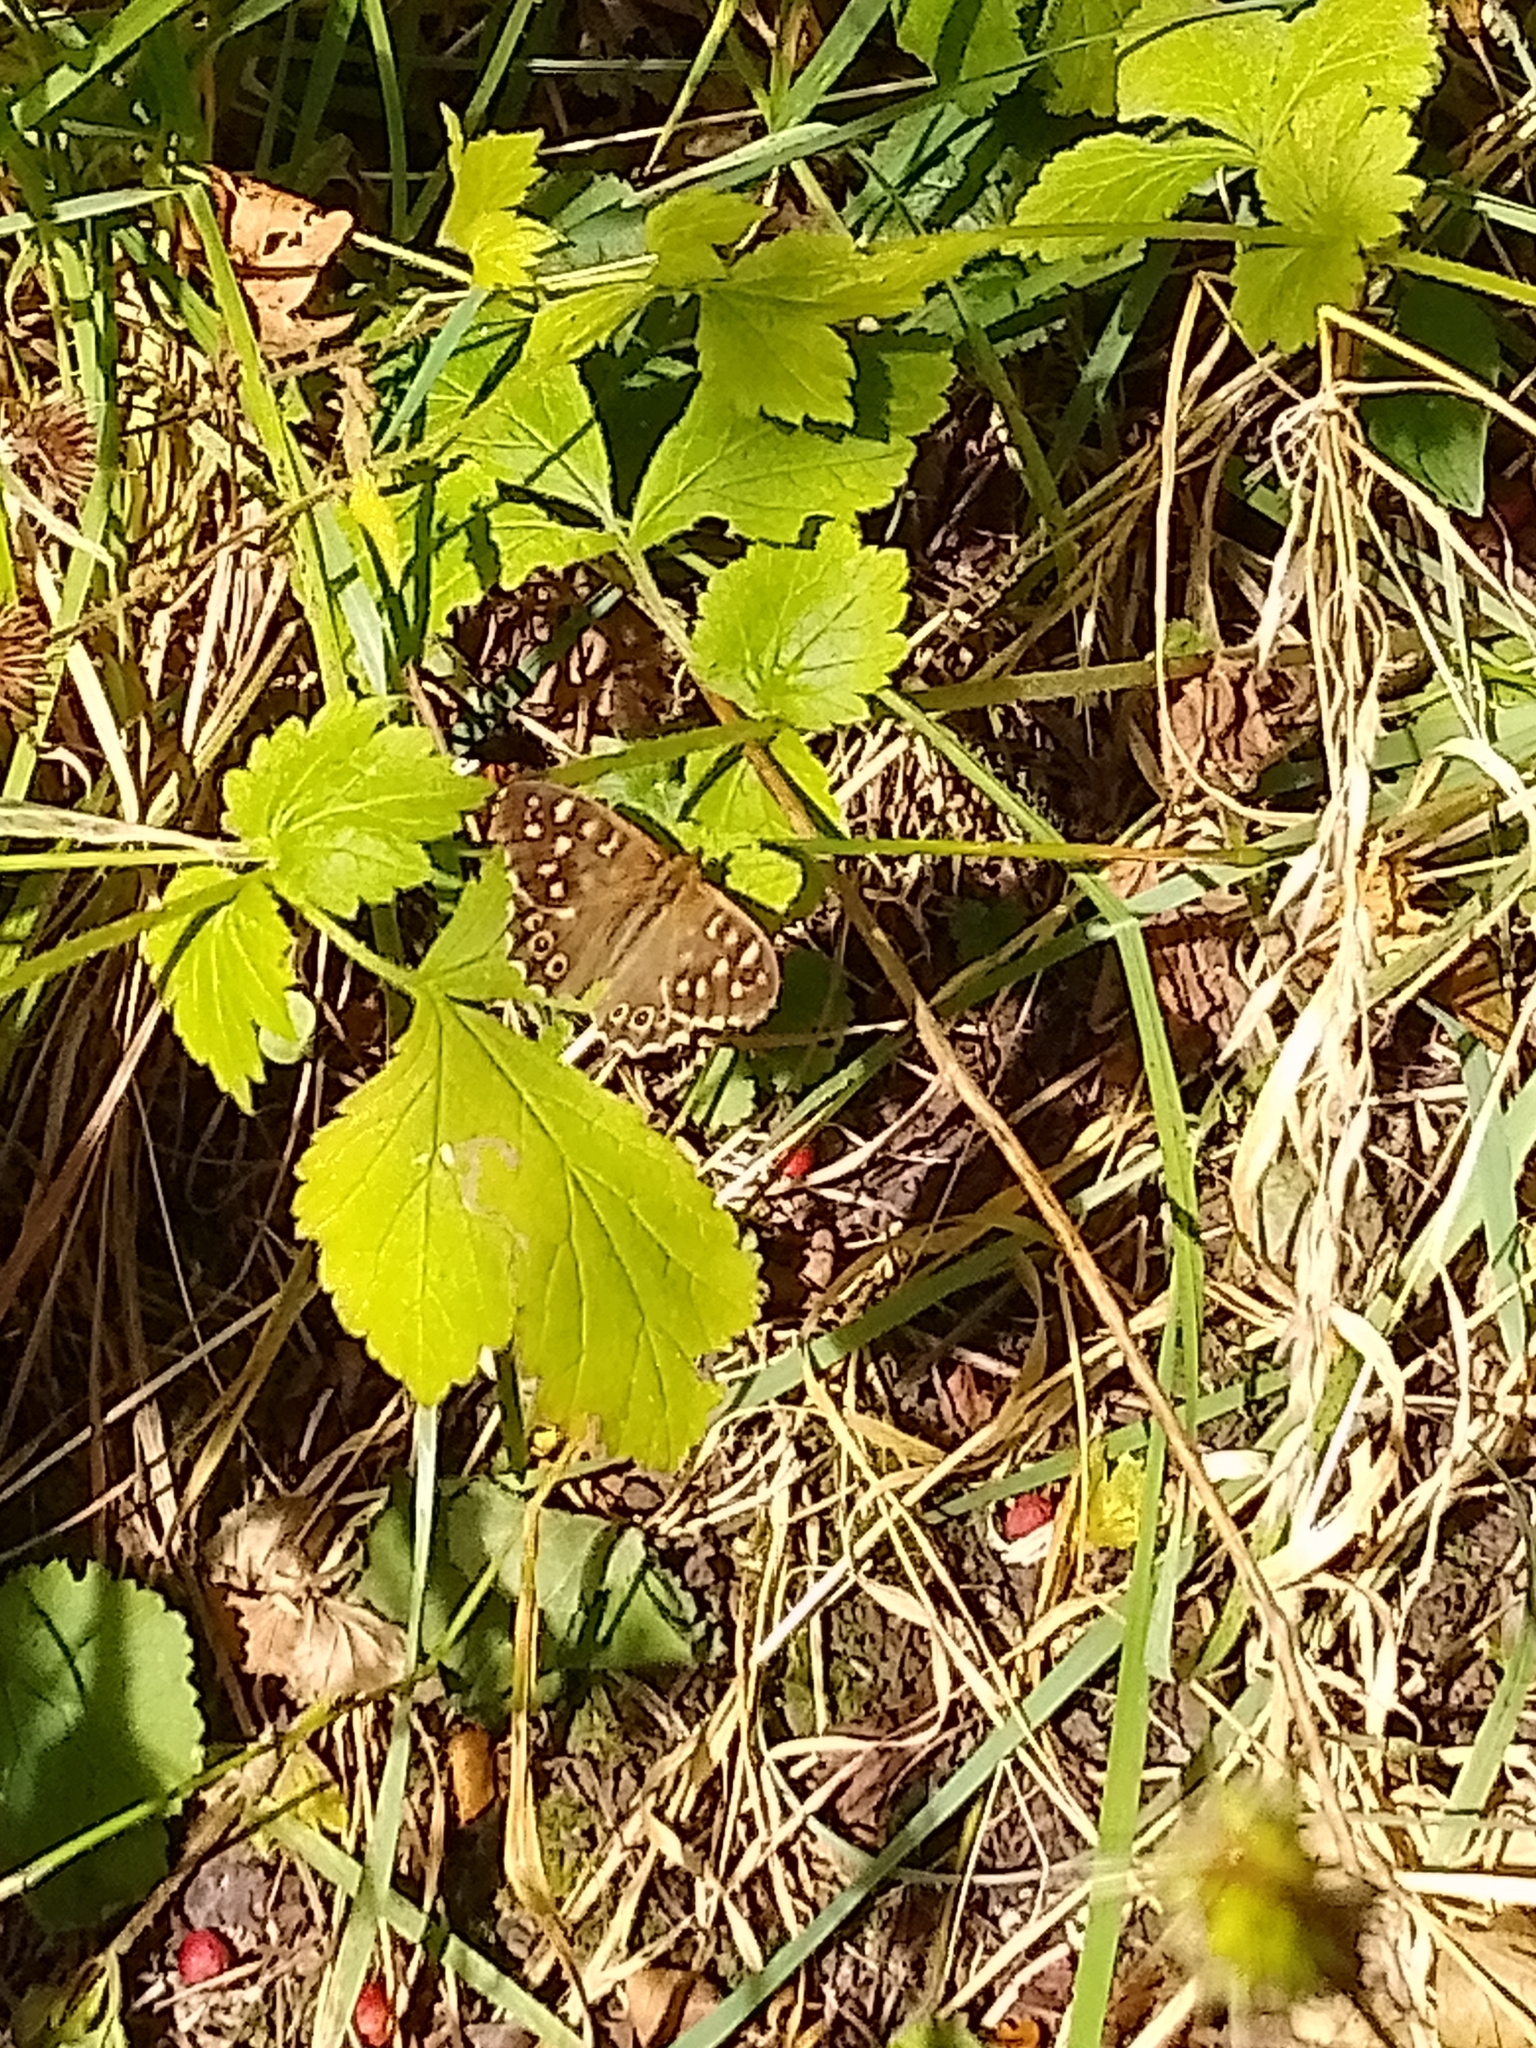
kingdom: Animalia
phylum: Arthropoda
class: Insecta
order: Lepidoptera
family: Nymphalidae
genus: Pararge
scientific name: Pararge aegeria
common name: Speckled wood
